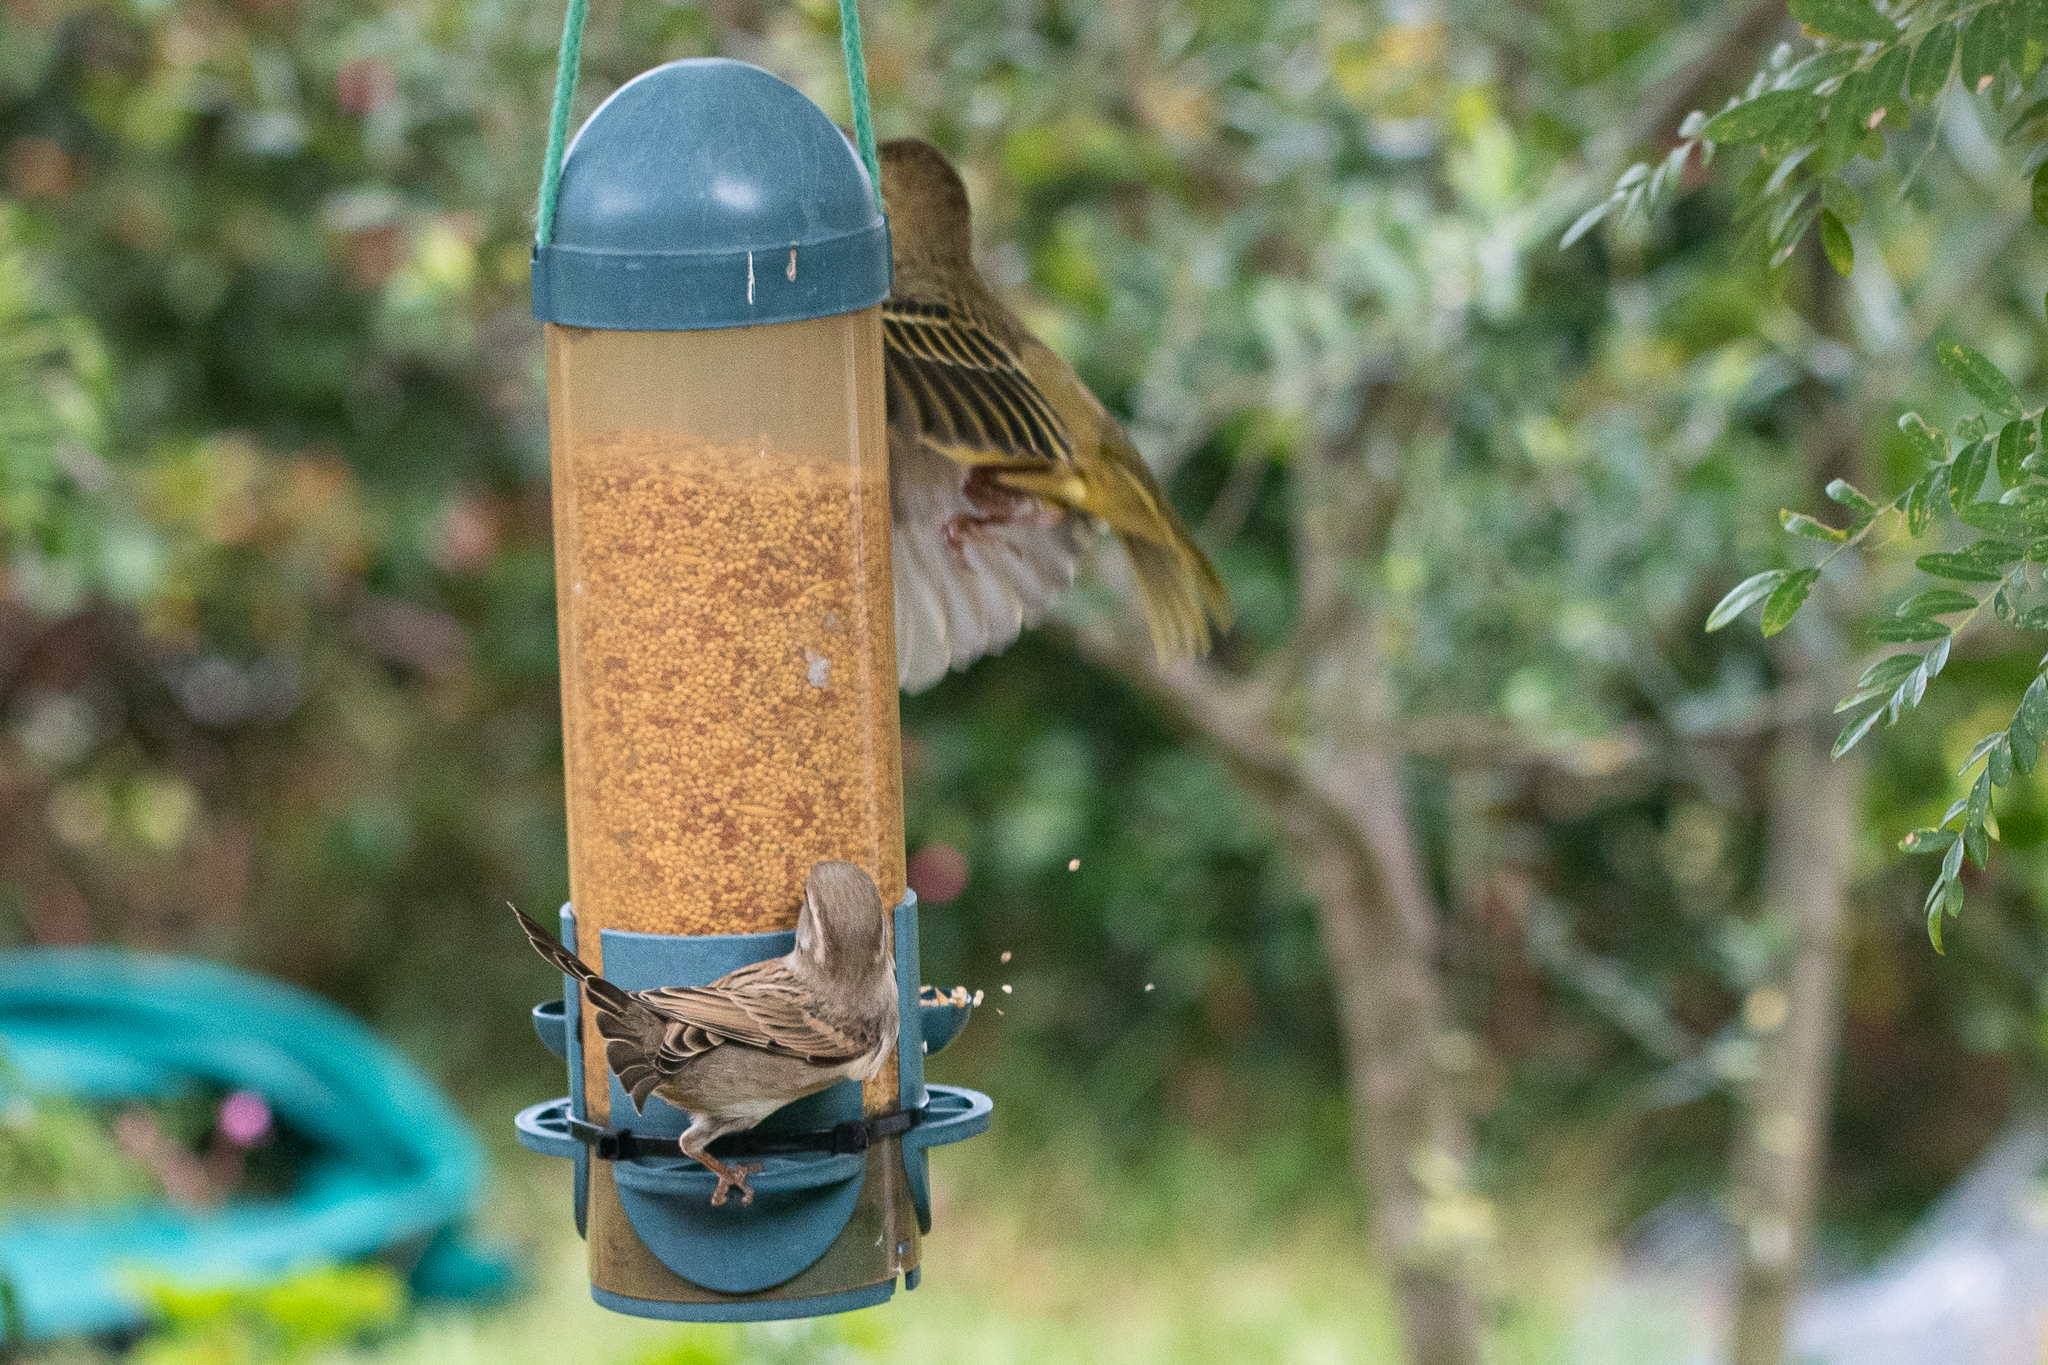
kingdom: Animalia
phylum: Chordata
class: Aves
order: Passeriformes
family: Passeridae
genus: Passer
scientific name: Passer domesticus
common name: House sparrow
